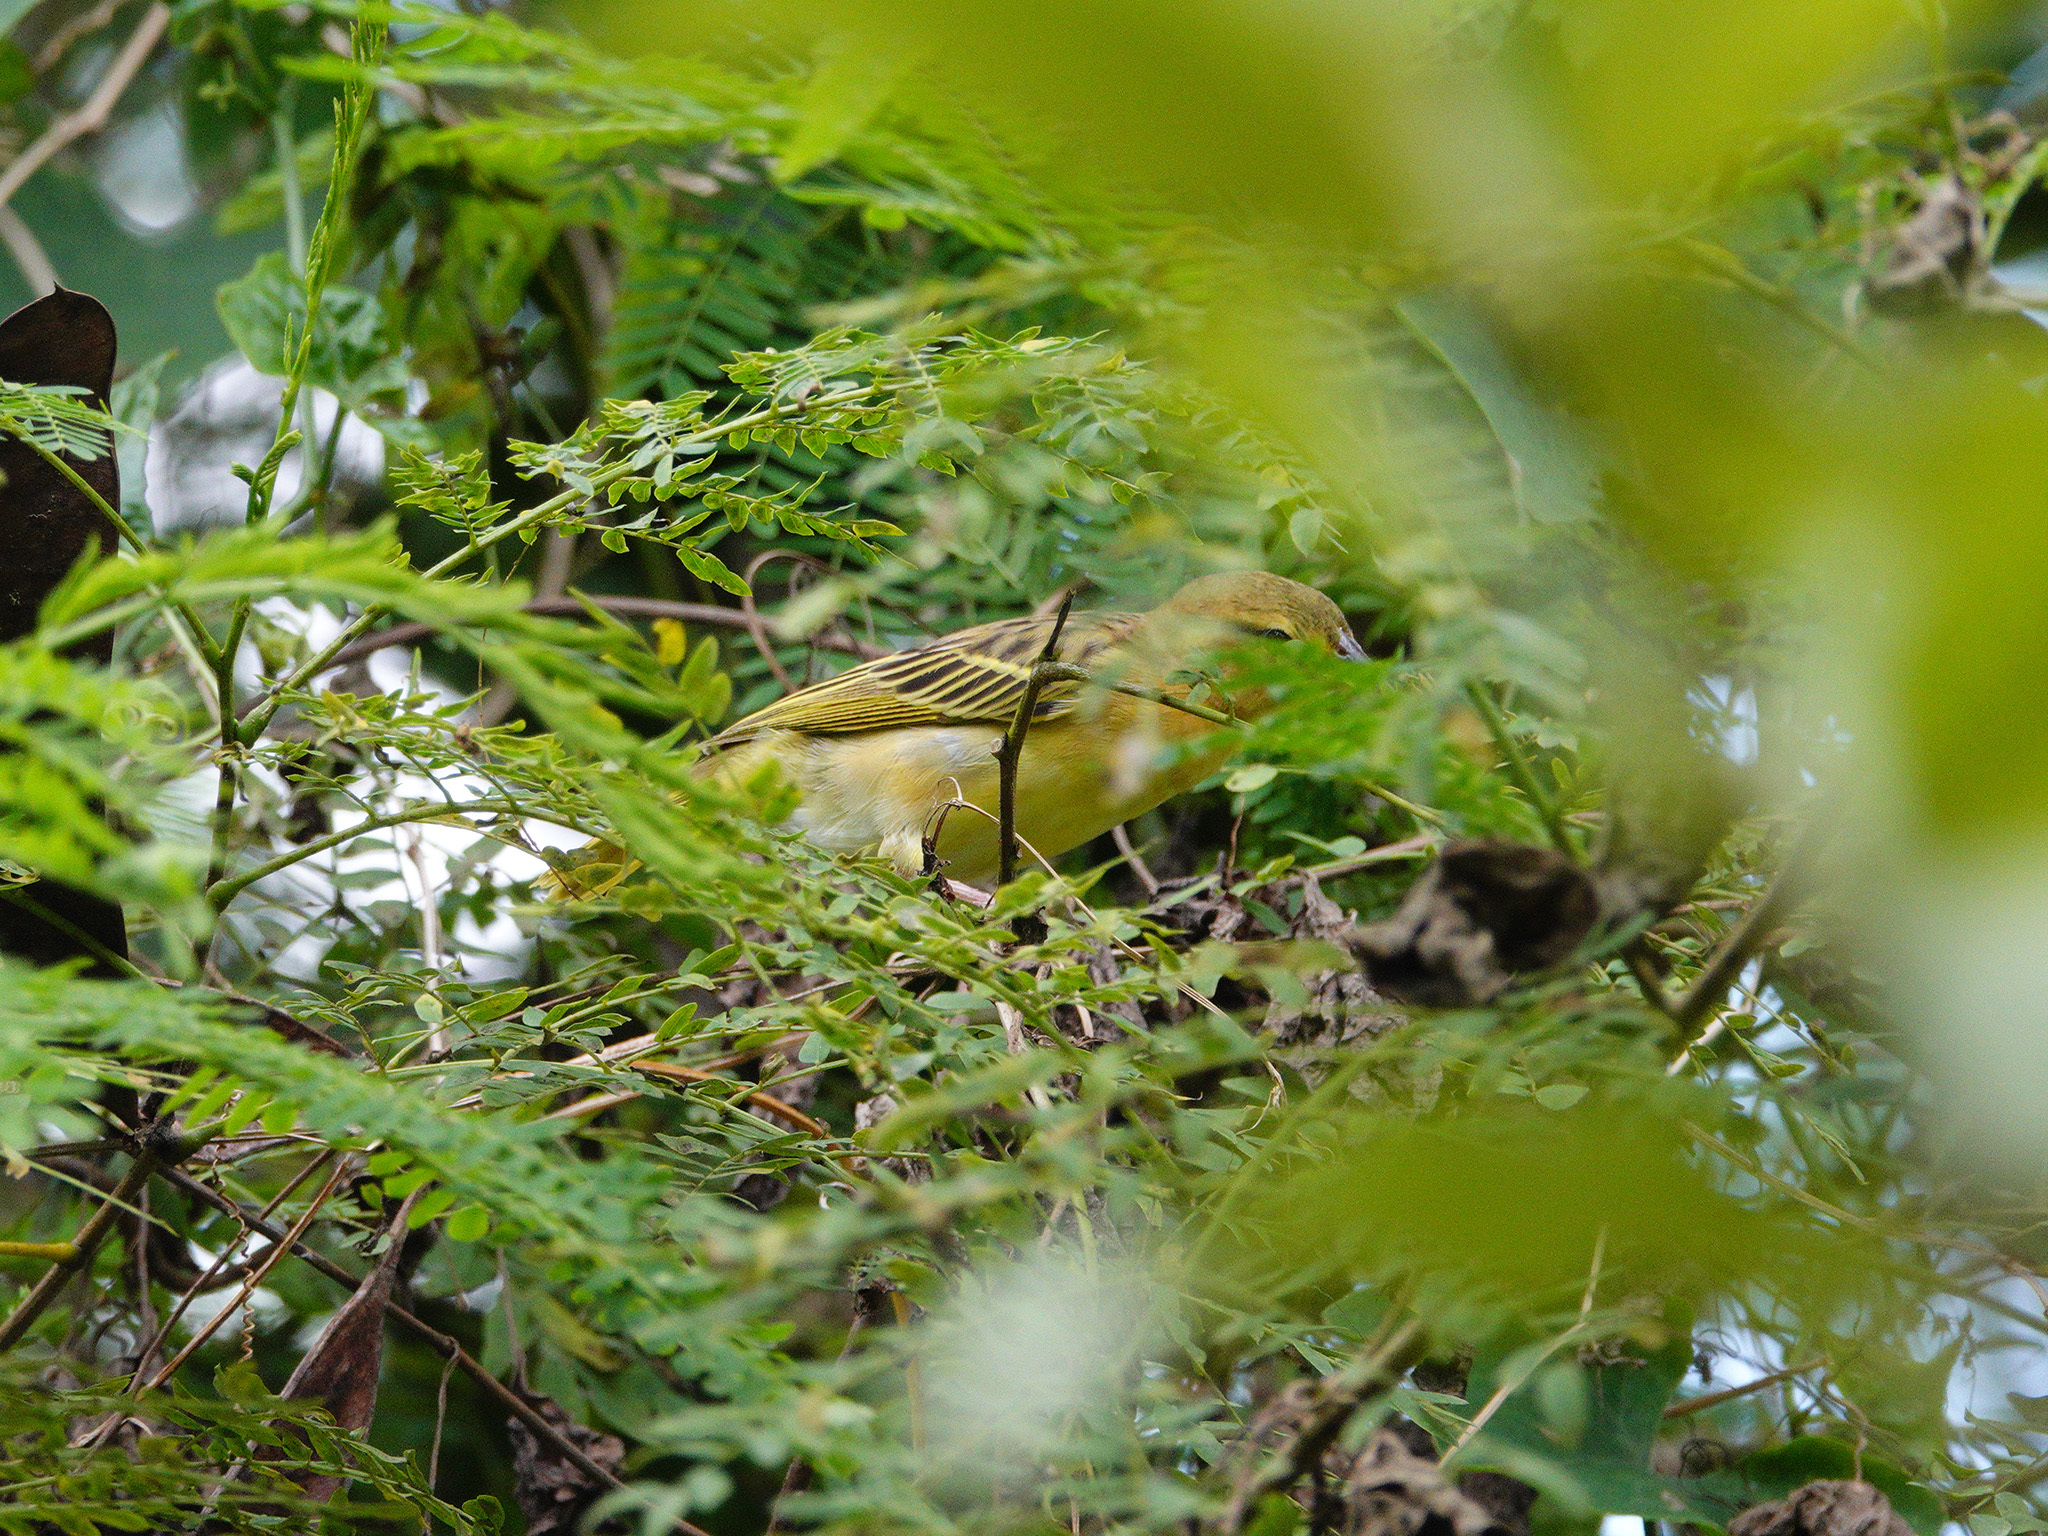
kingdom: Animalia
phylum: Chordata
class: Aves
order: Passeriformes
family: Ploceidae
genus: Ploceus
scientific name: Ploceus jacksoni
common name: Golden-backed weaver
